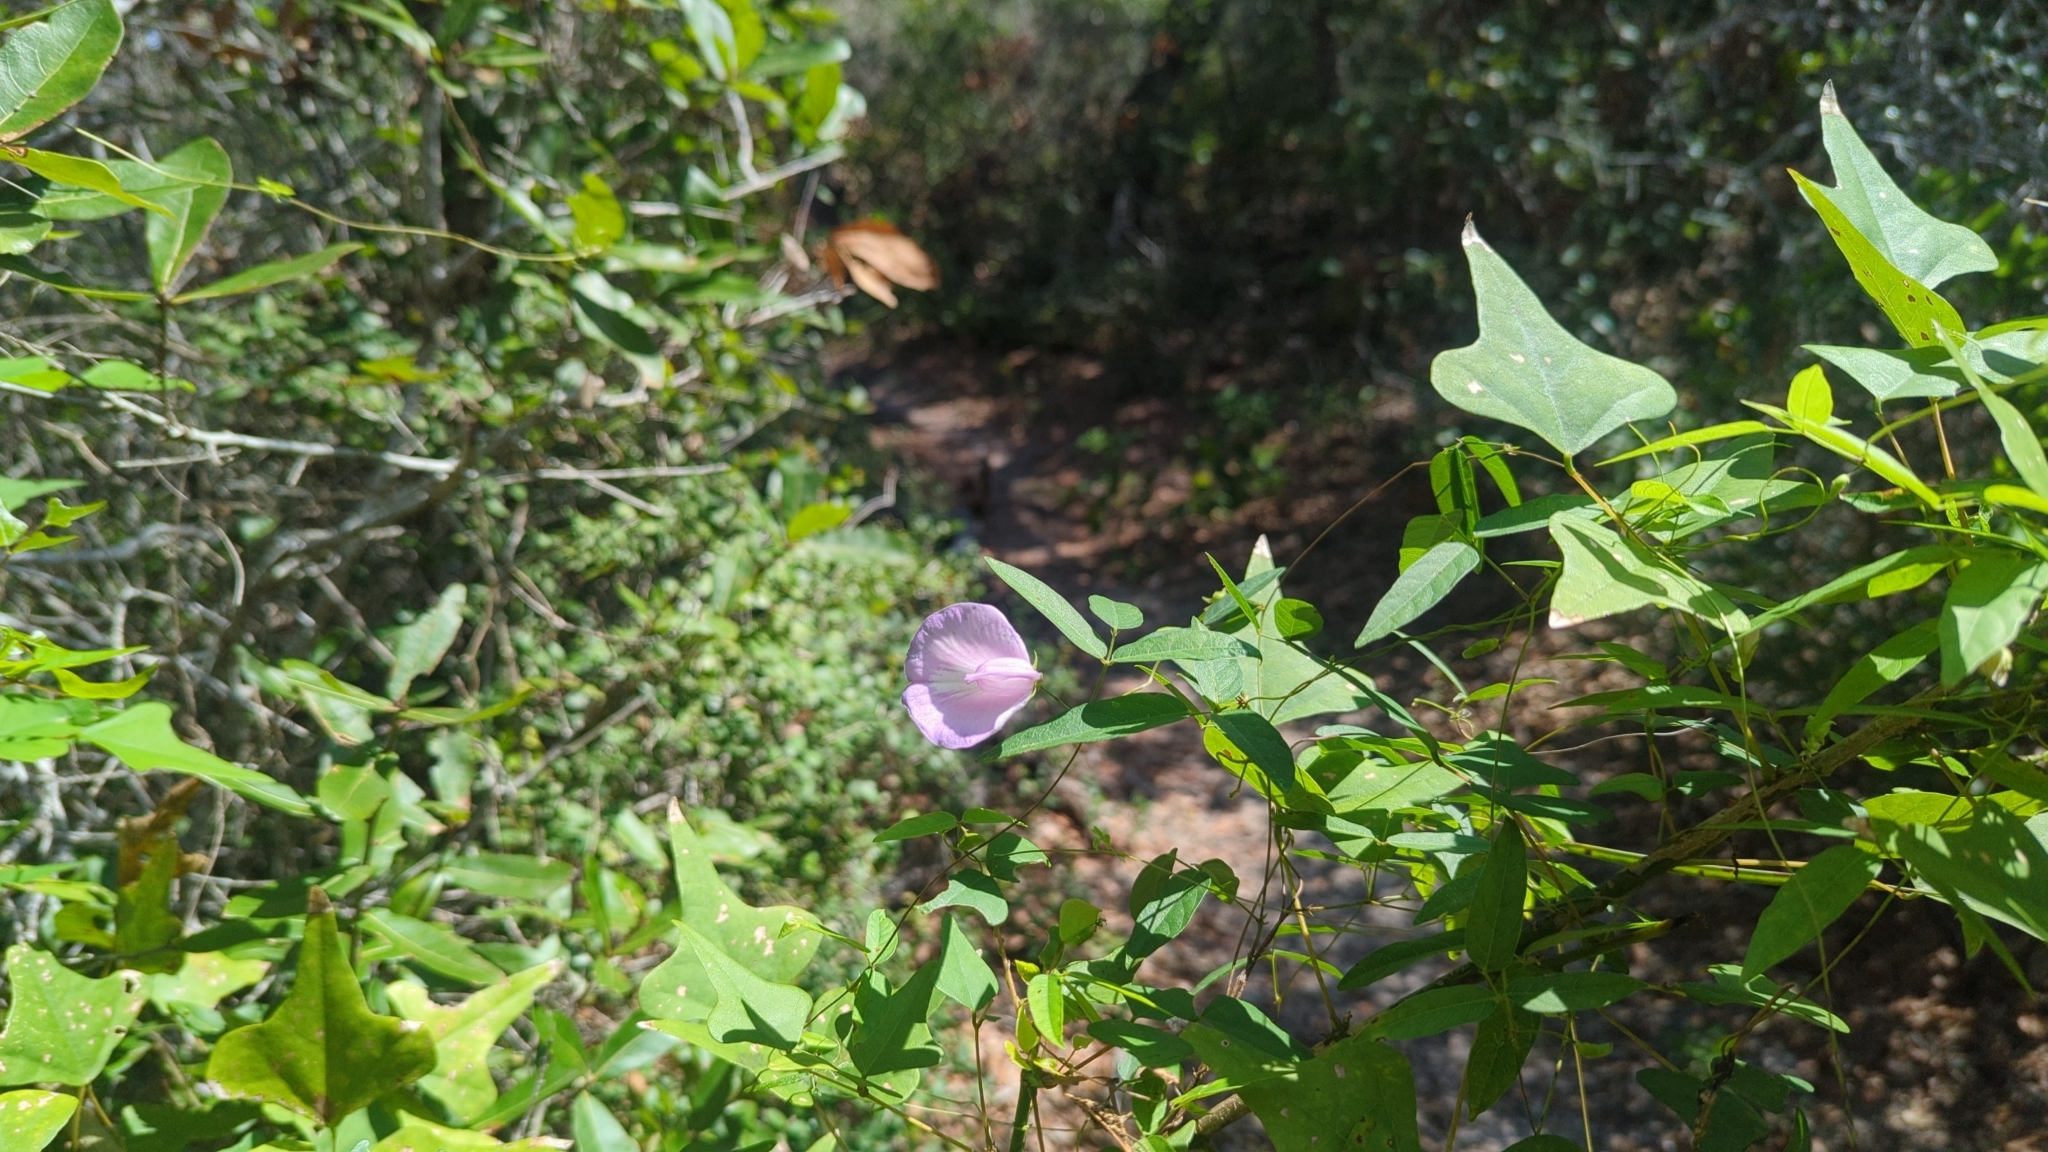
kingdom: Plantae
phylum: Tracheophyta
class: Magnoliopsida
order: Fabales
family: Fabaceae
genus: Centrosema
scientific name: Centrosema virginianum
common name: Butterfly-pea
